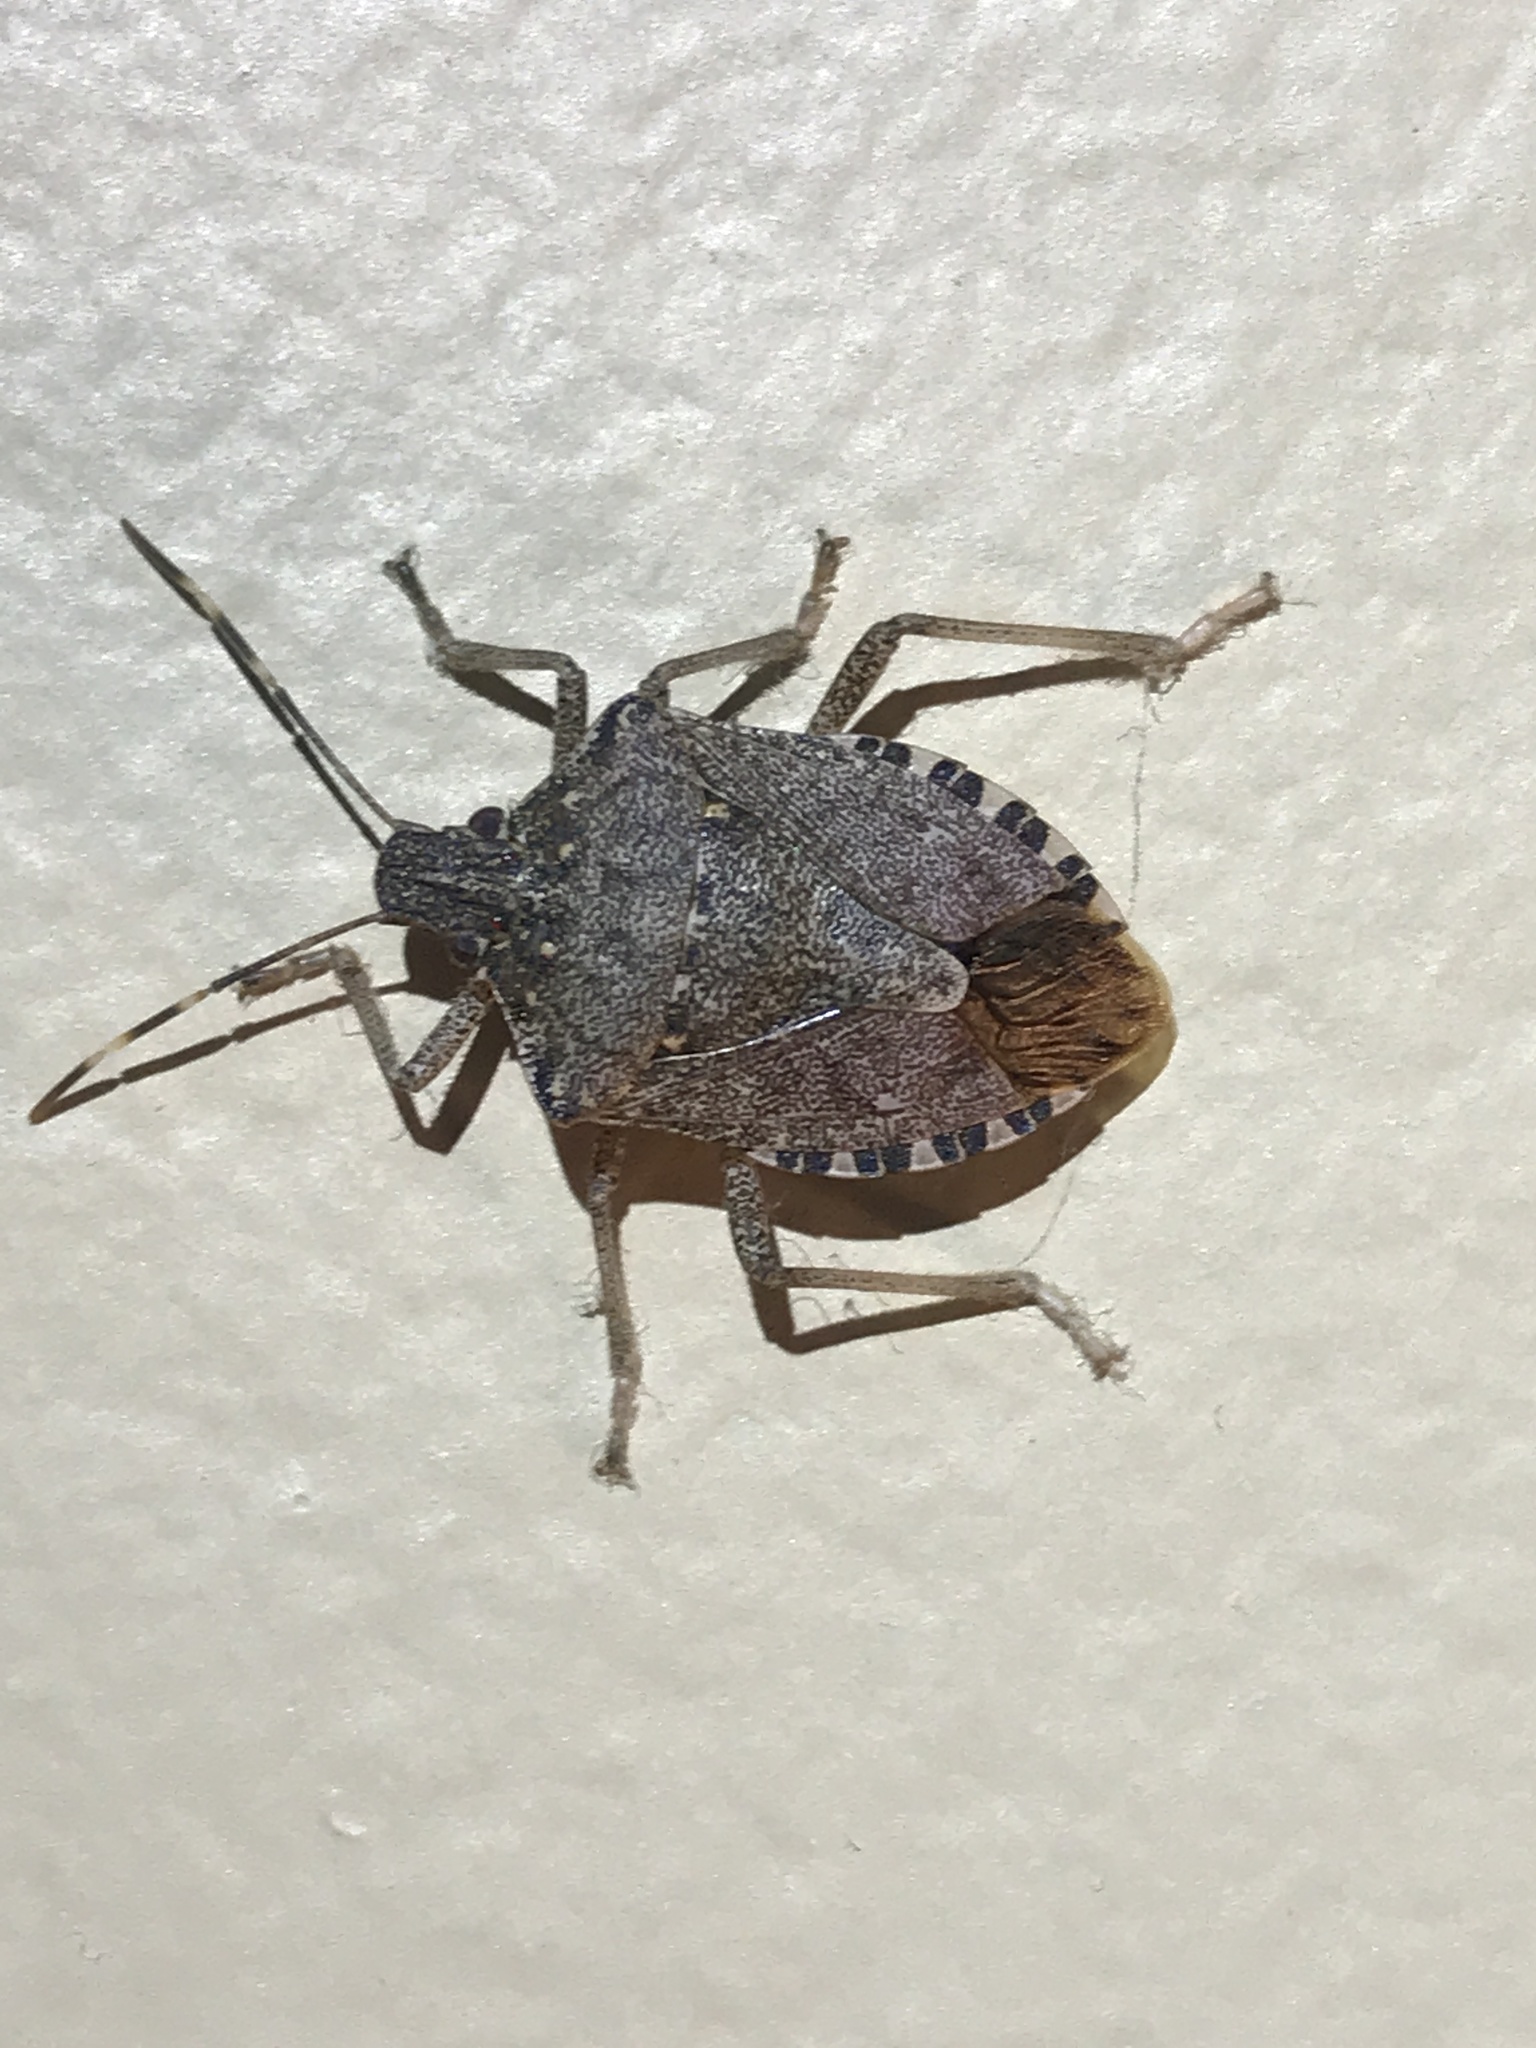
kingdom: Animalia
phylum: Arthropoda
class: Insecta
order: Hemiptera
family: Pentatomidae
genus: Halyomorpha
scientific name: Halyomorpha halys
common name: Brown marmorated stink bug
